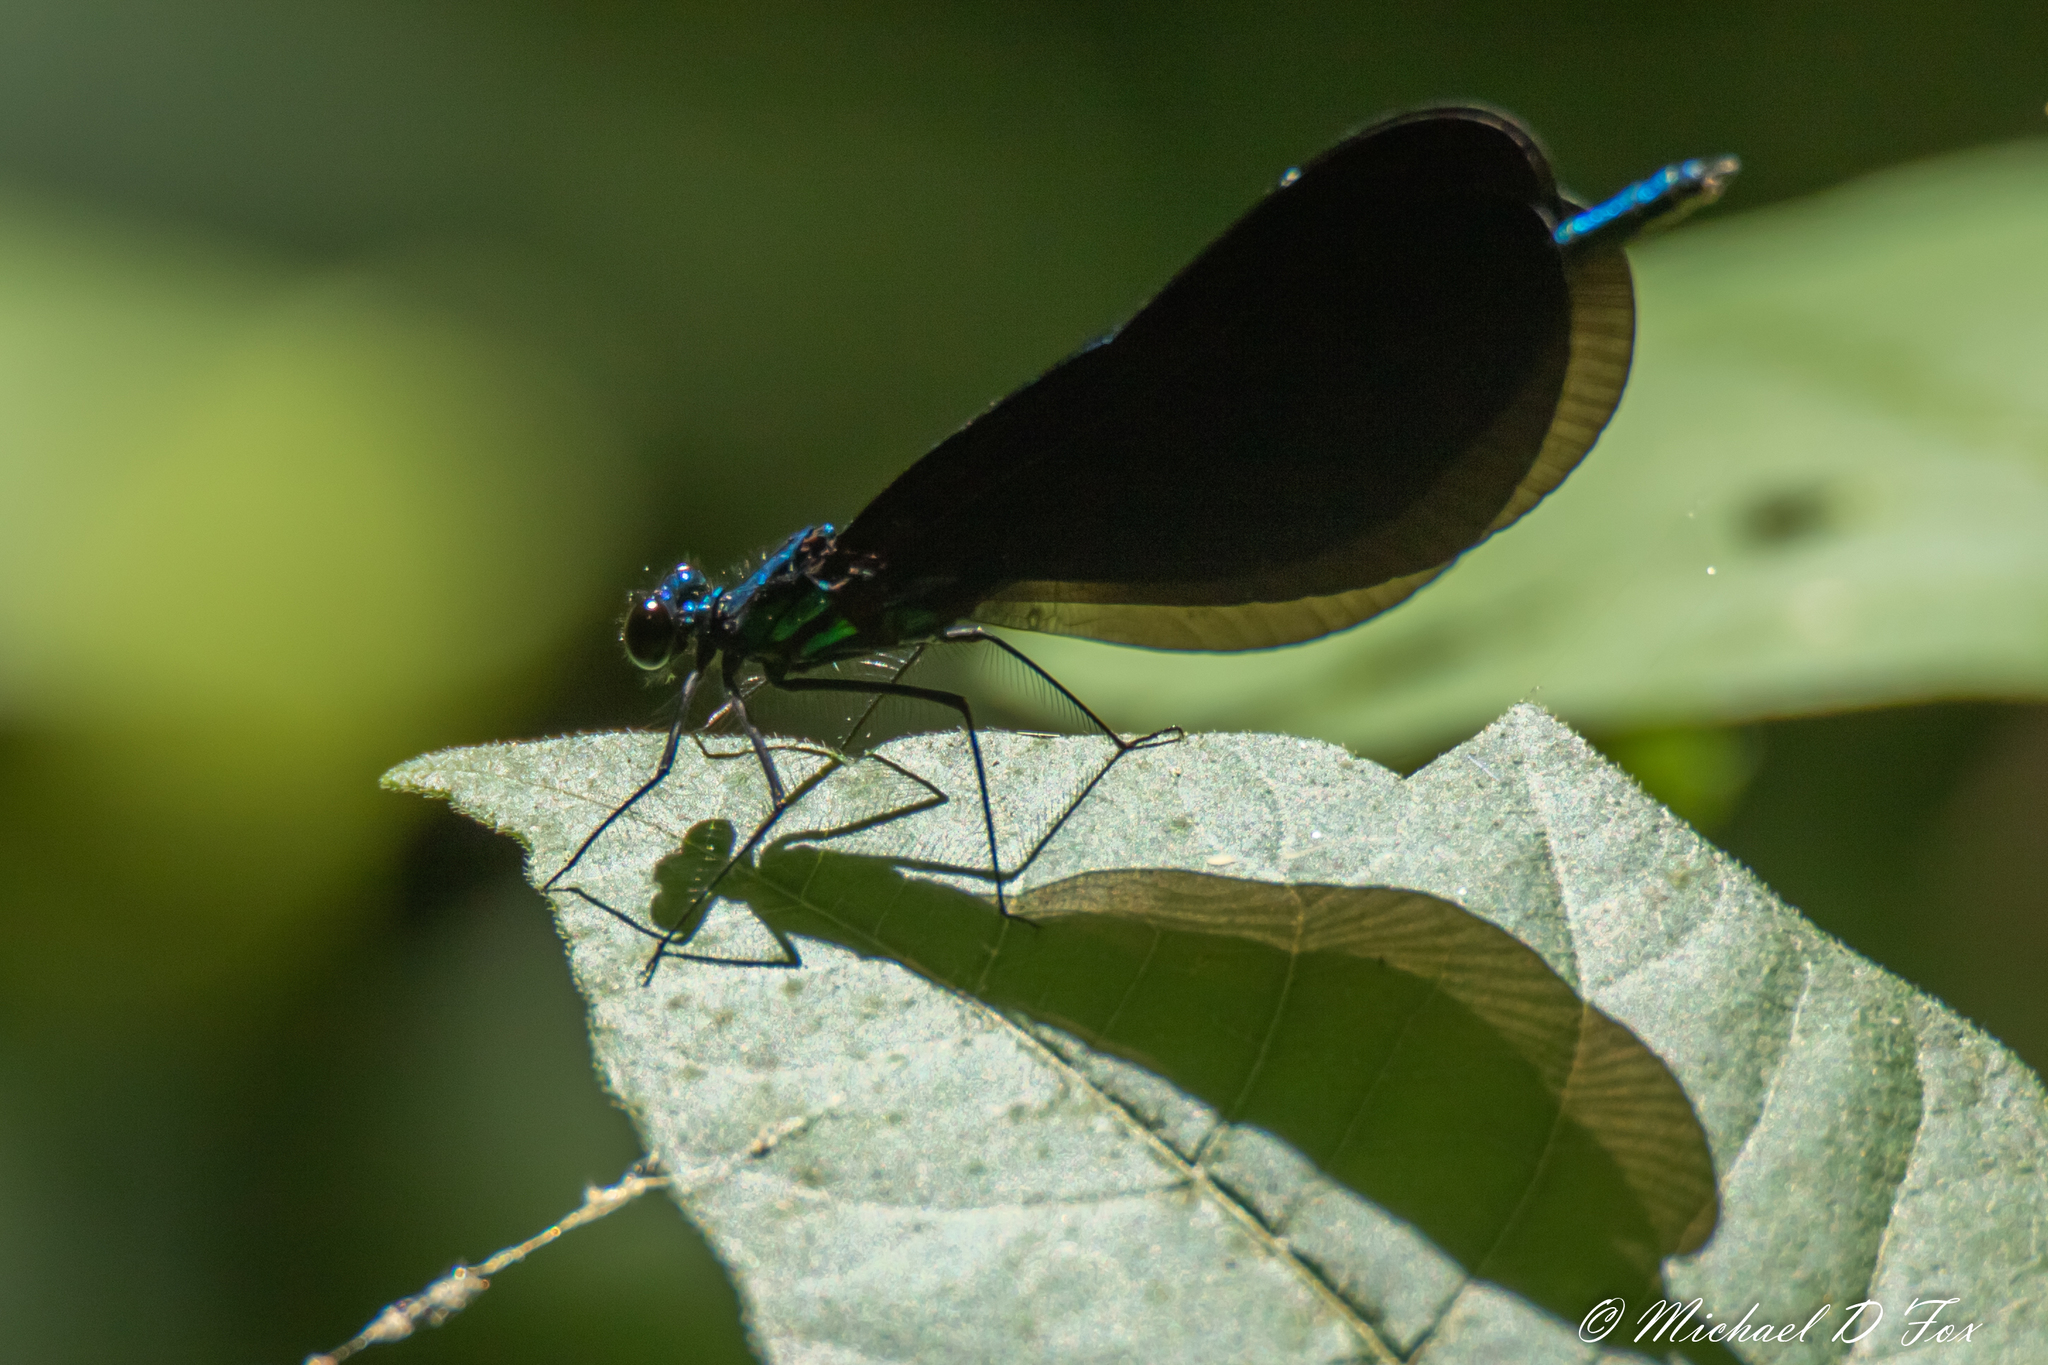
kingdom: Animalia
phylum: Arthropoda
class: Insecta
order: Odonata
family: Calopterygidae
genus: Calopteryx
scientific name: Calopteryx maculata
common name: Ebony jewelwing
